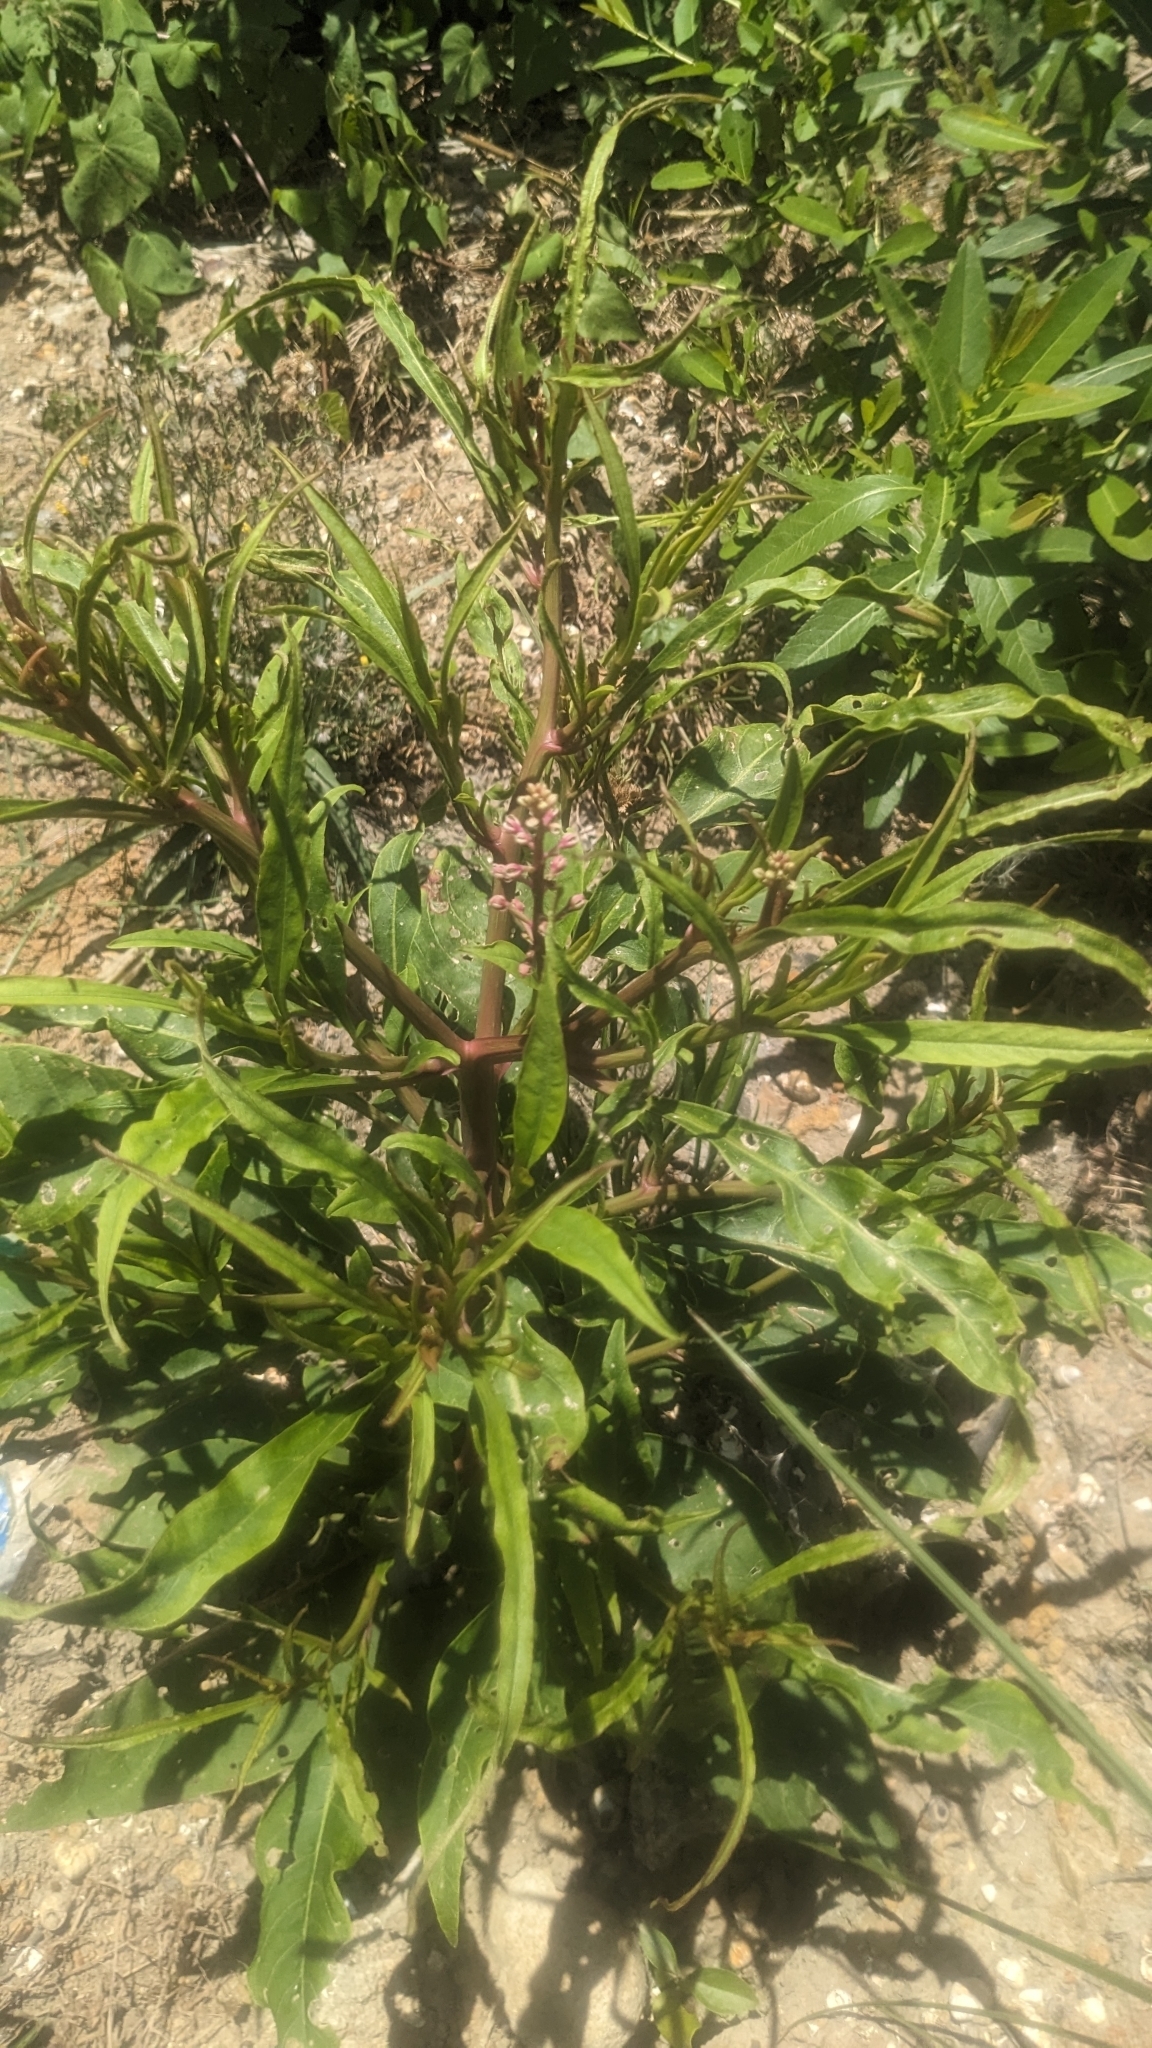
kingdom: Plantae
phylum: Tracheophyta
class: Magnoliopsida
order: Caryophyllales
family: Phytolaccaceae
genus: Phytolacca
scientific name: Phytolacca americana
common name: American pokeweed
